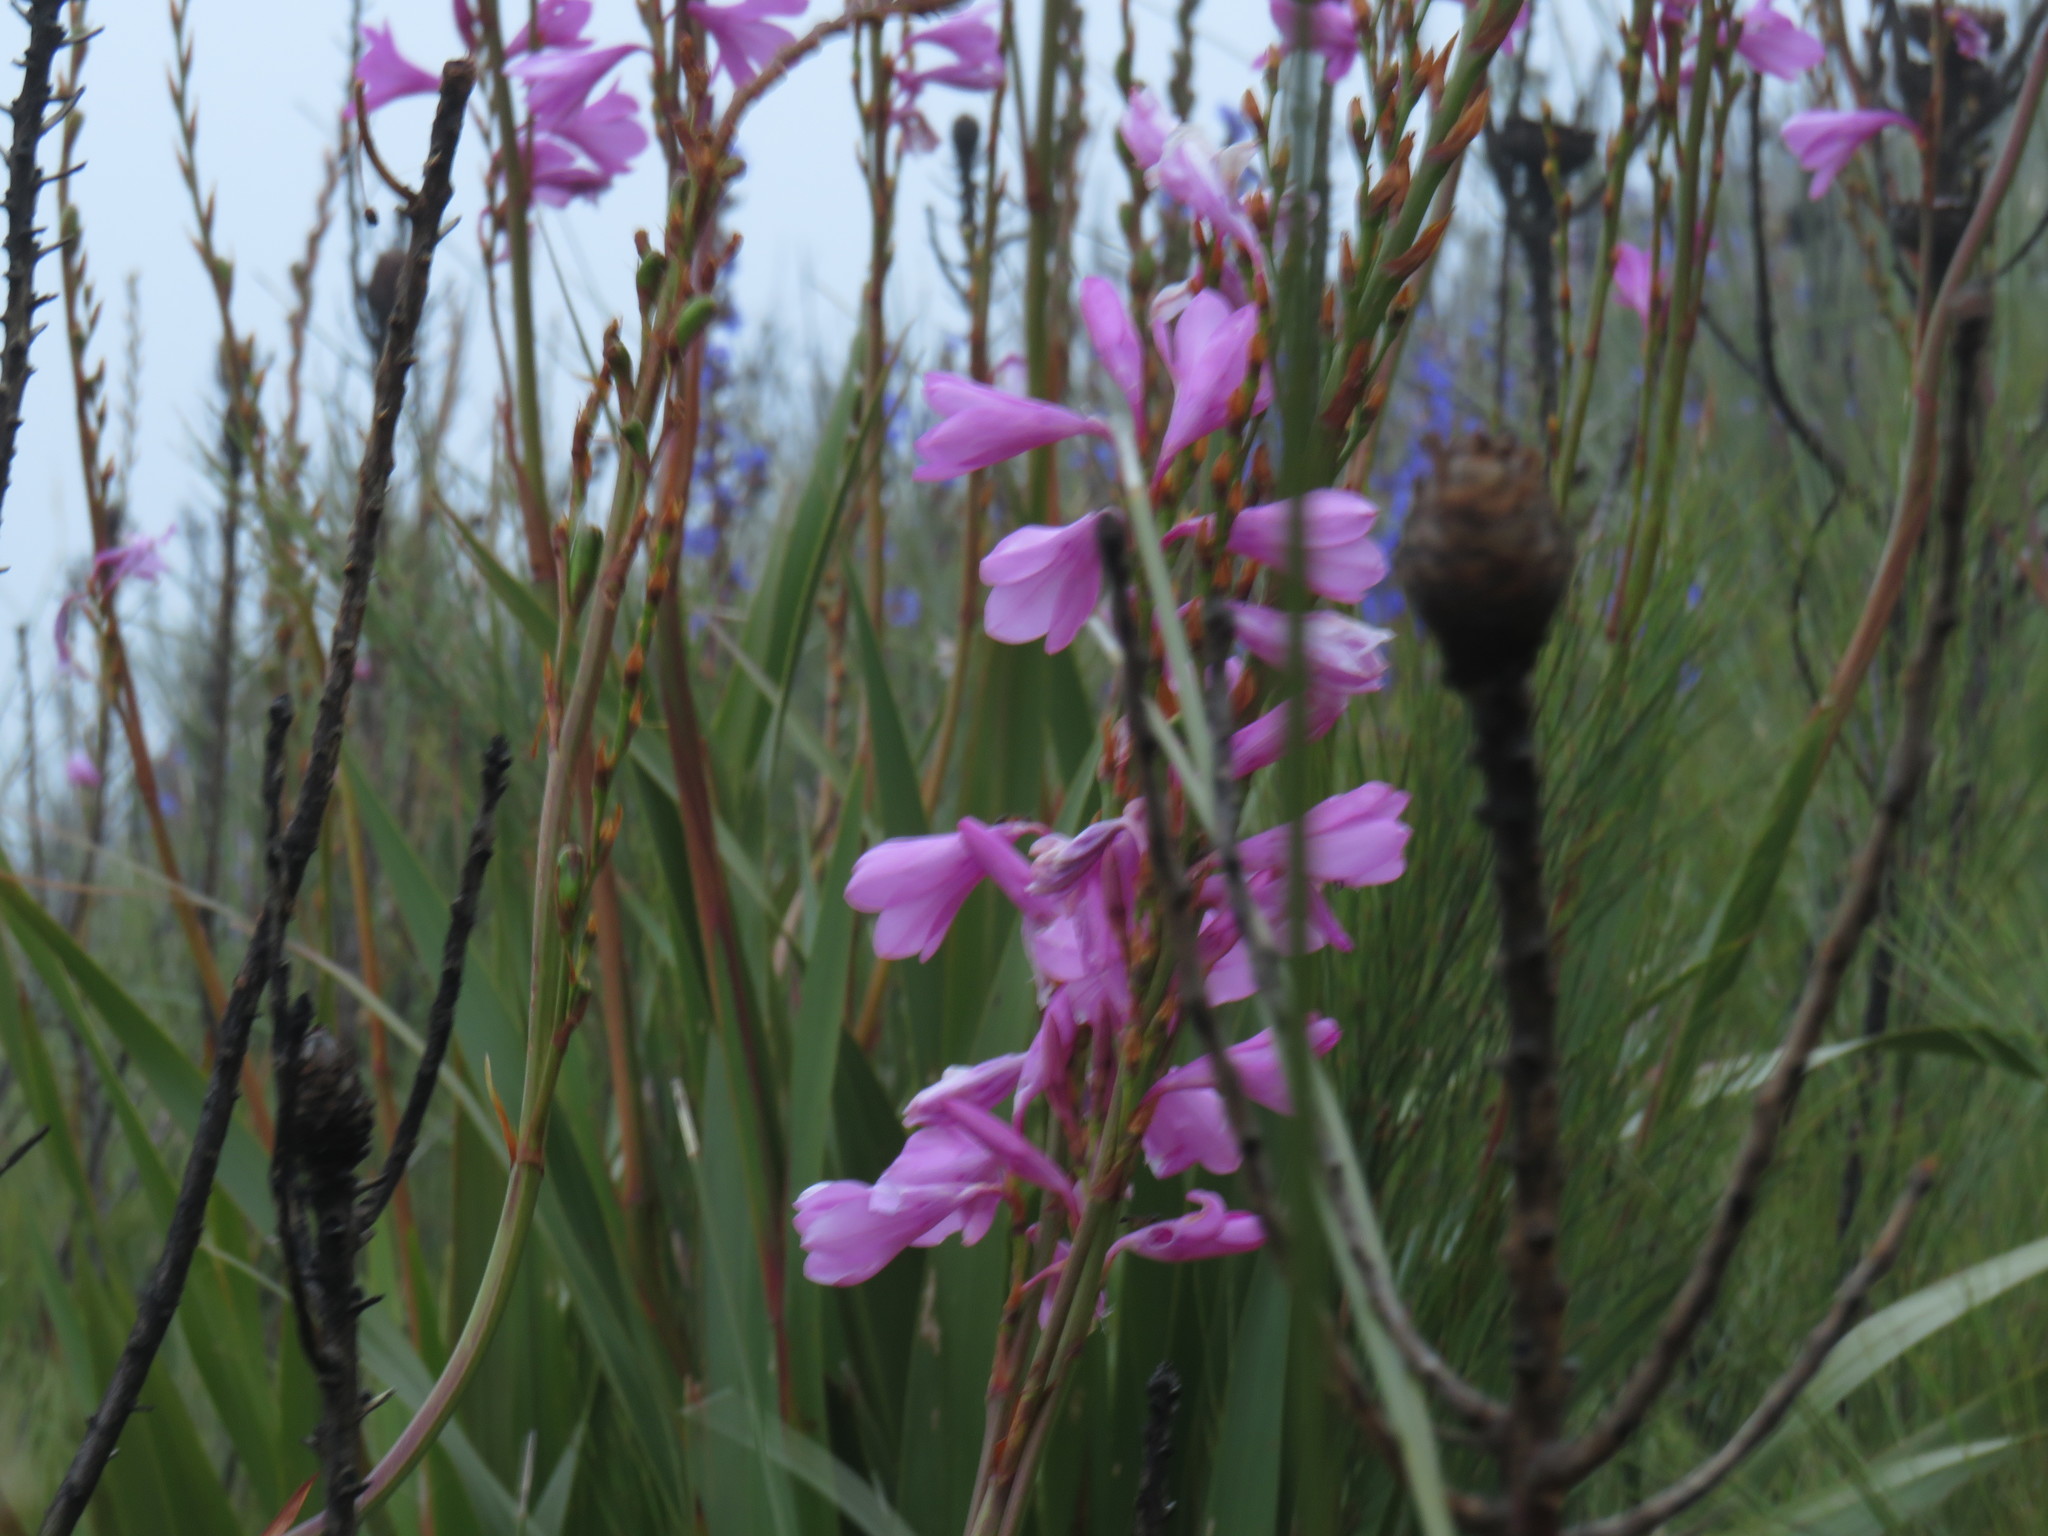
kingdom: Plantae
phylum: Tracheophyta
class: Liliopsida
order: Asparagales
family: Iridaceae
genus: Watsonia
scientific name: Watsonia borbonica
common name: Bugle-lily
